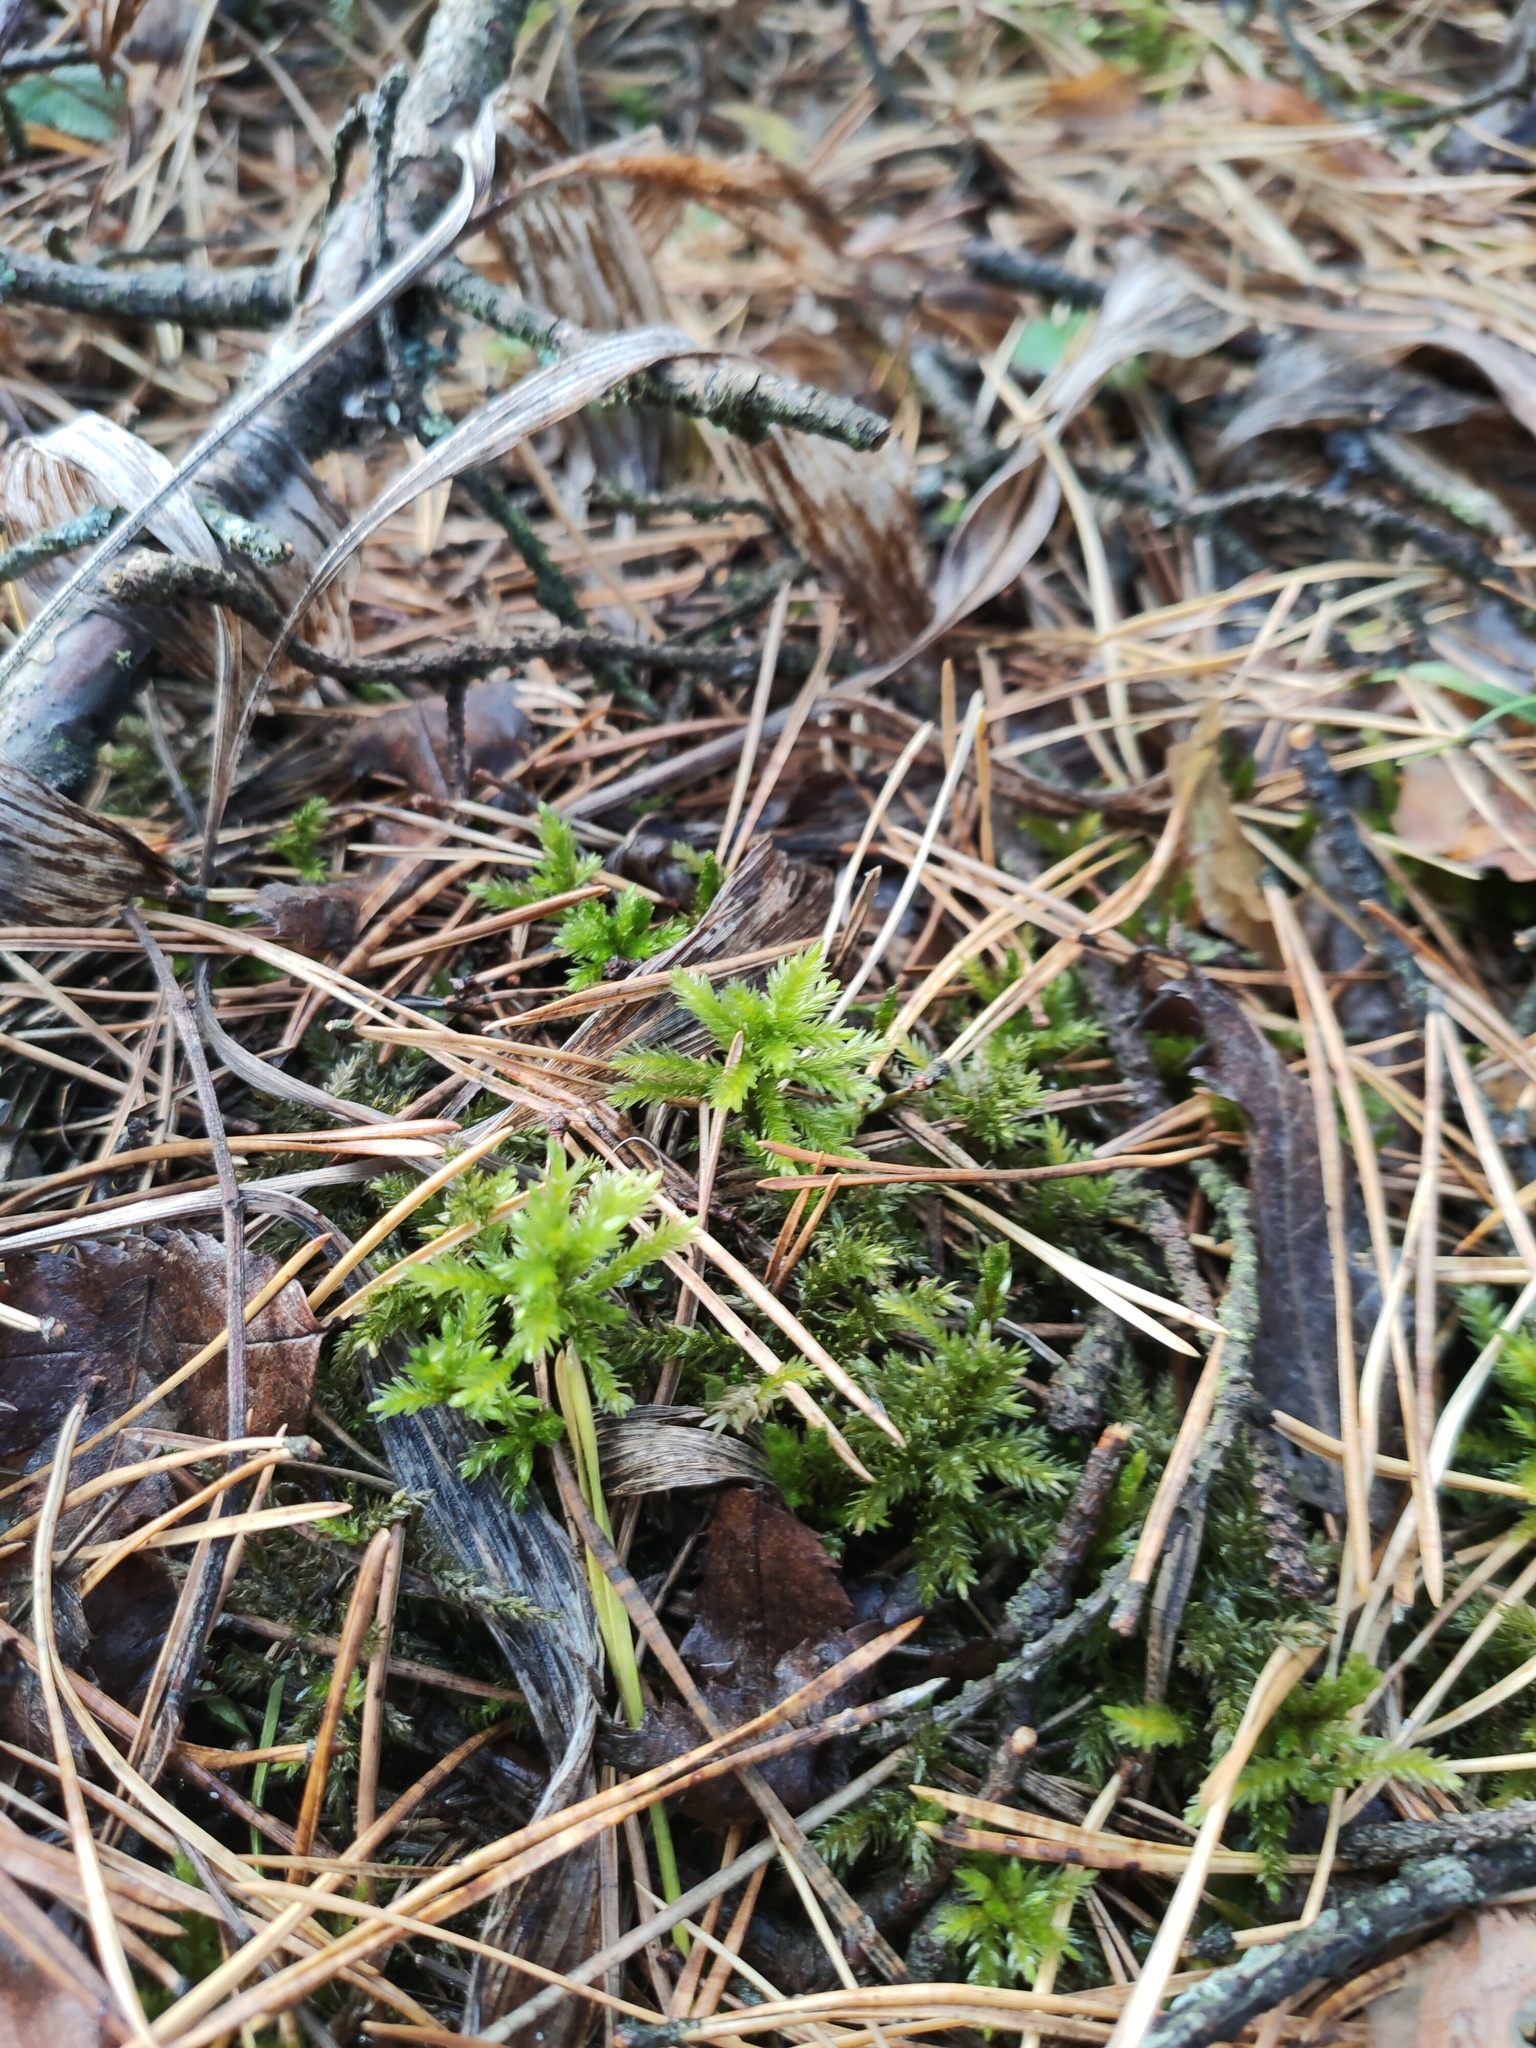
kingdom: Plantae
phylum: Bryophyta
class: Bryopsida
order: Hypnales
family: Climaciaceae
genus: Climacium
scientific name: Climacium dendroides
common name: Northern tree moss
